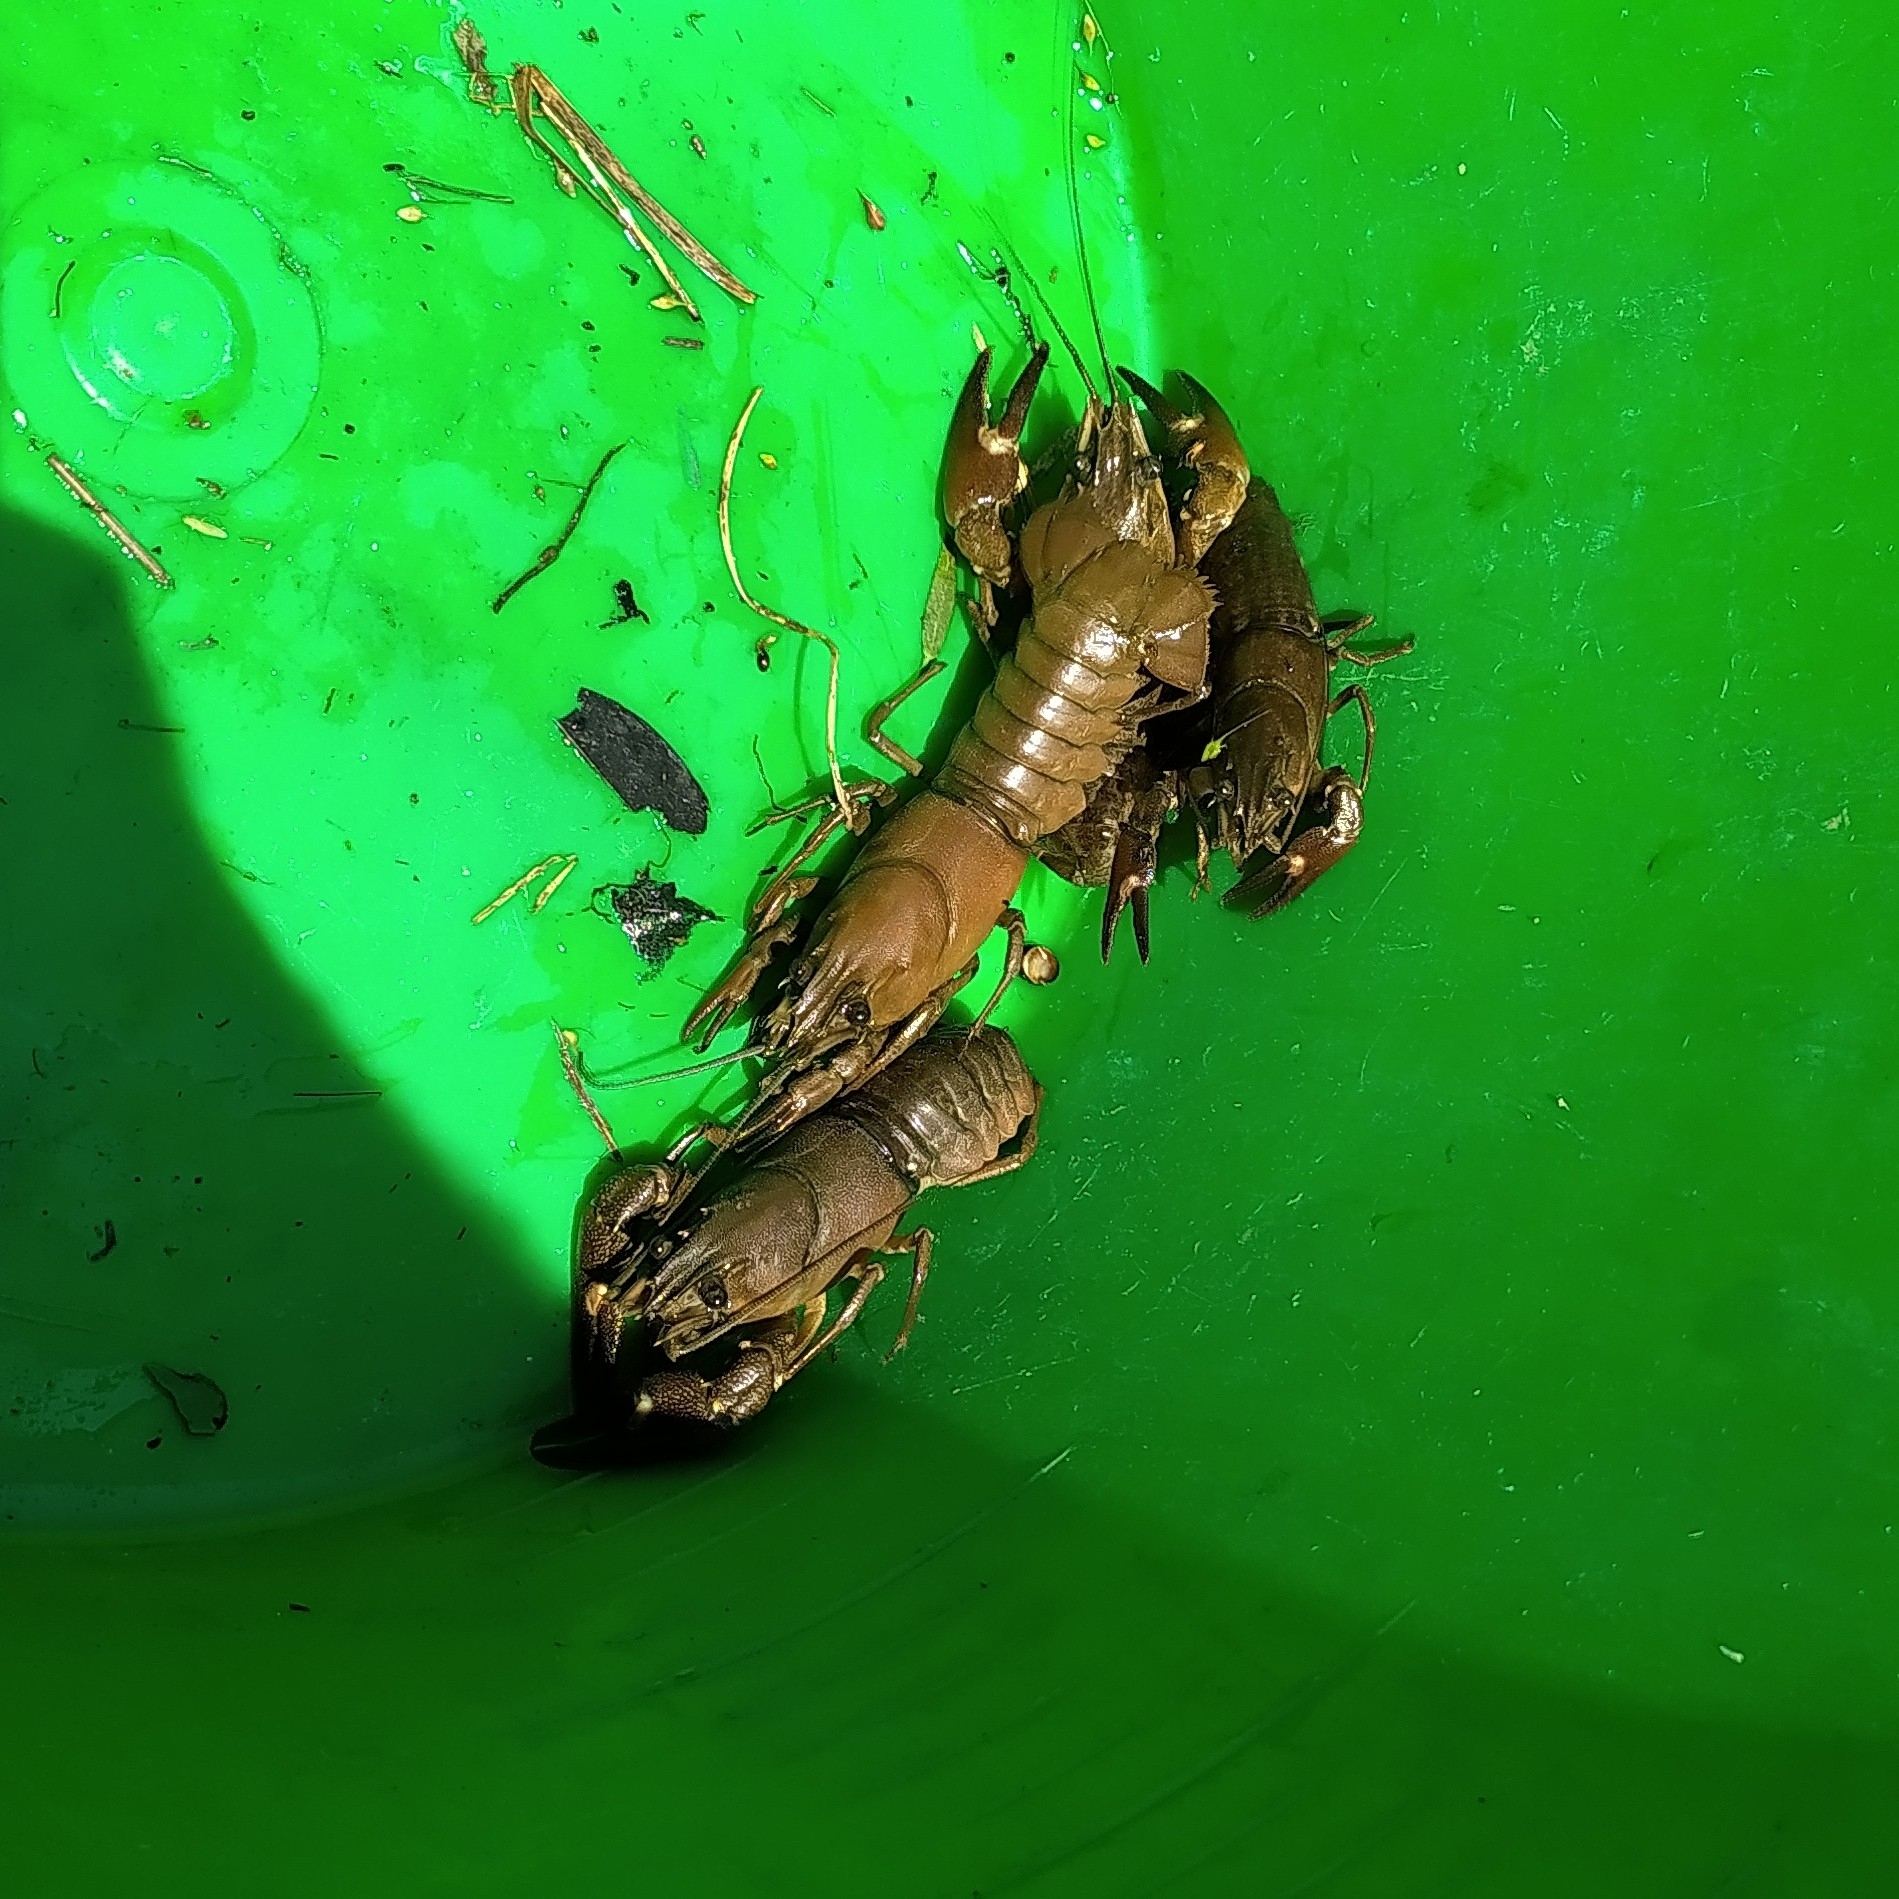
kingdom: Animalia
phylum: Arthropoda
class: Malacostraca
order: Decapoda
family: Astacidae
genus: Pacifastacus
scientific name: Pacifastacus leniusculus
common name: Signal crayfish
